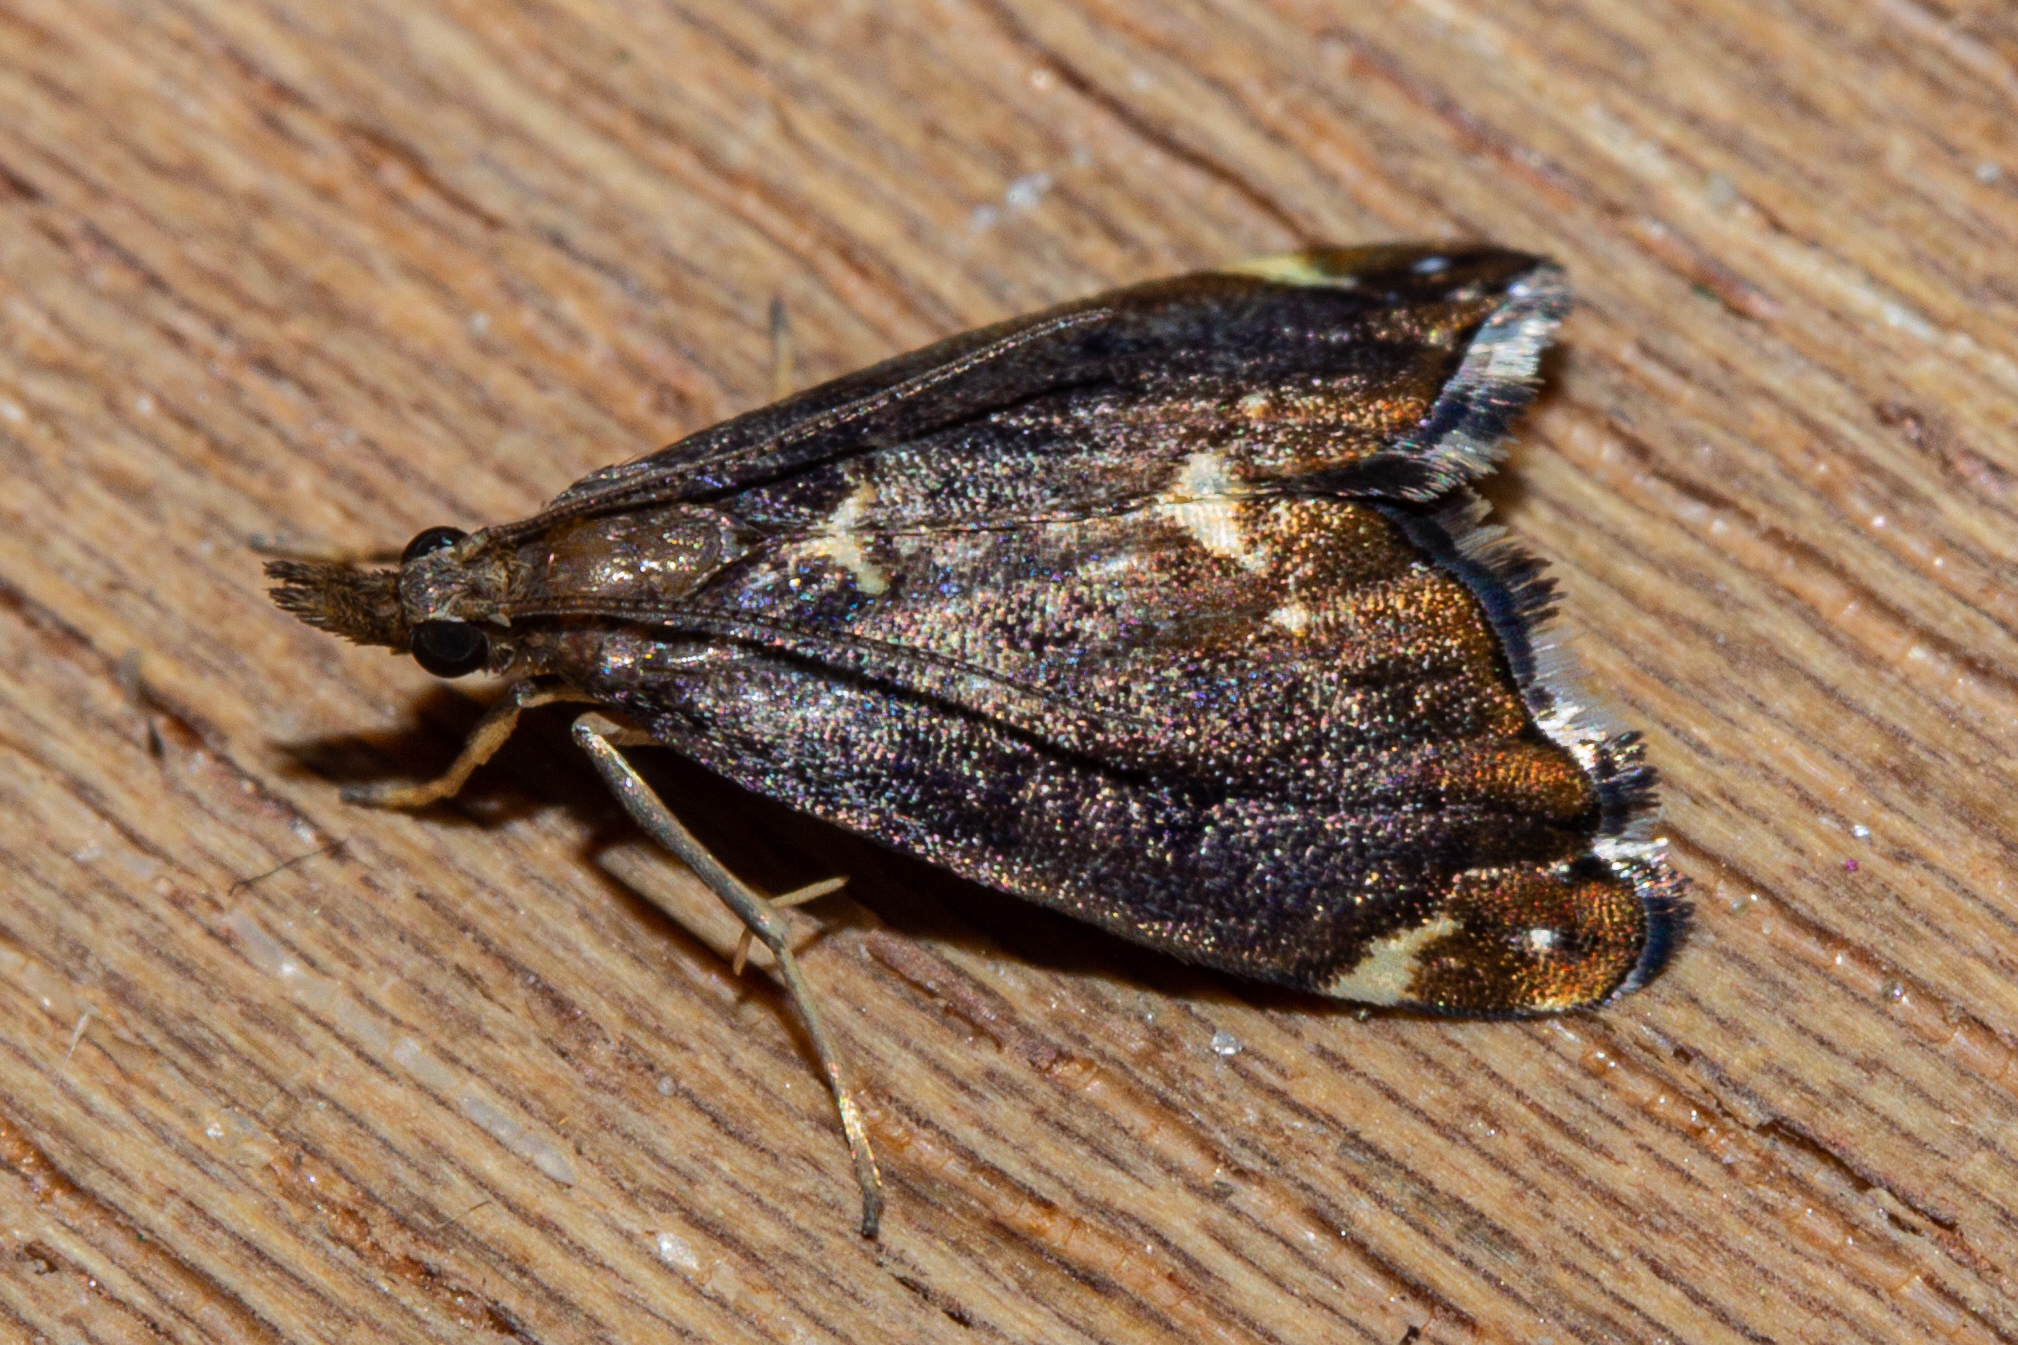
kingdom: Animalia
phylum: Arthropoda
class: Insecta
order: Lepidoptera
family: Crambidae
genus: Glaucocharis
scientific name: Glaucocharis pyrsophanes
